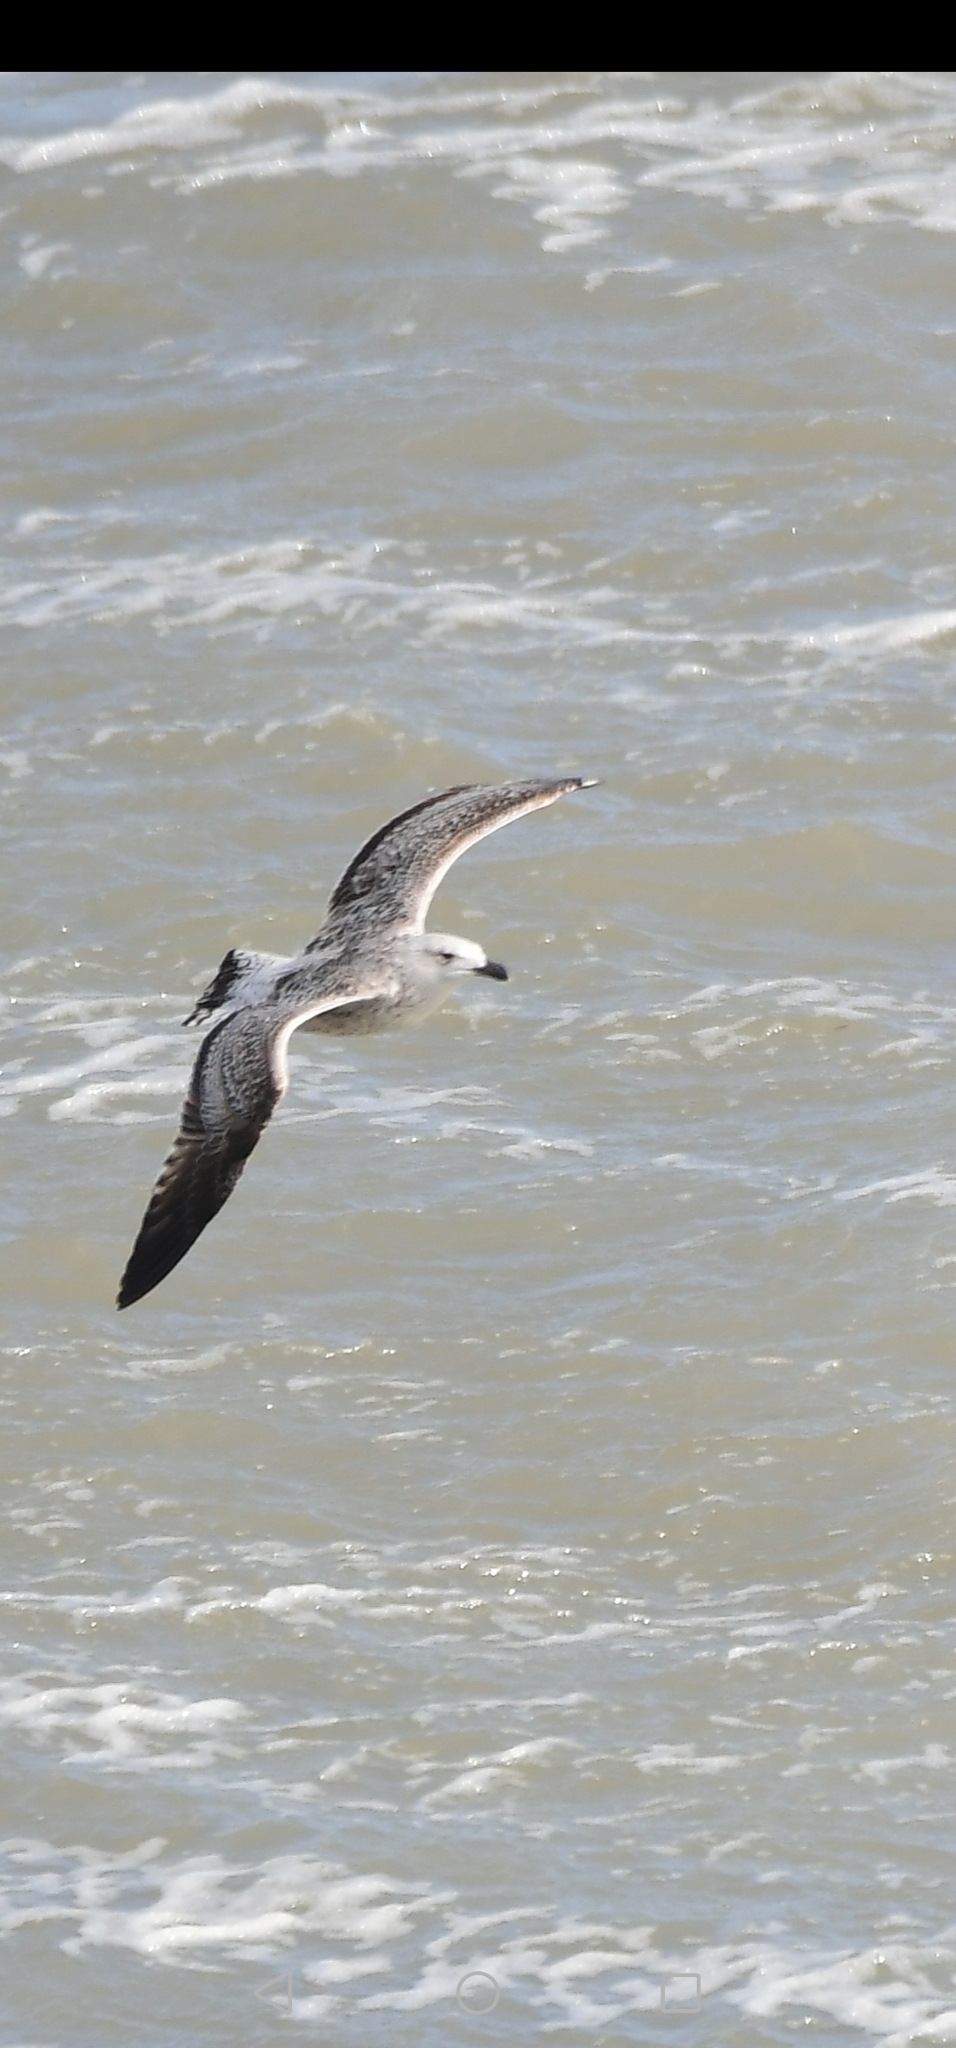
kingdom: Animalia
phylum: Chordata
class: Aves
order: Charadriiformes
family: Laridae
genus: Larus
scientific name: Larus marinus
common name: Great black-backed gull
